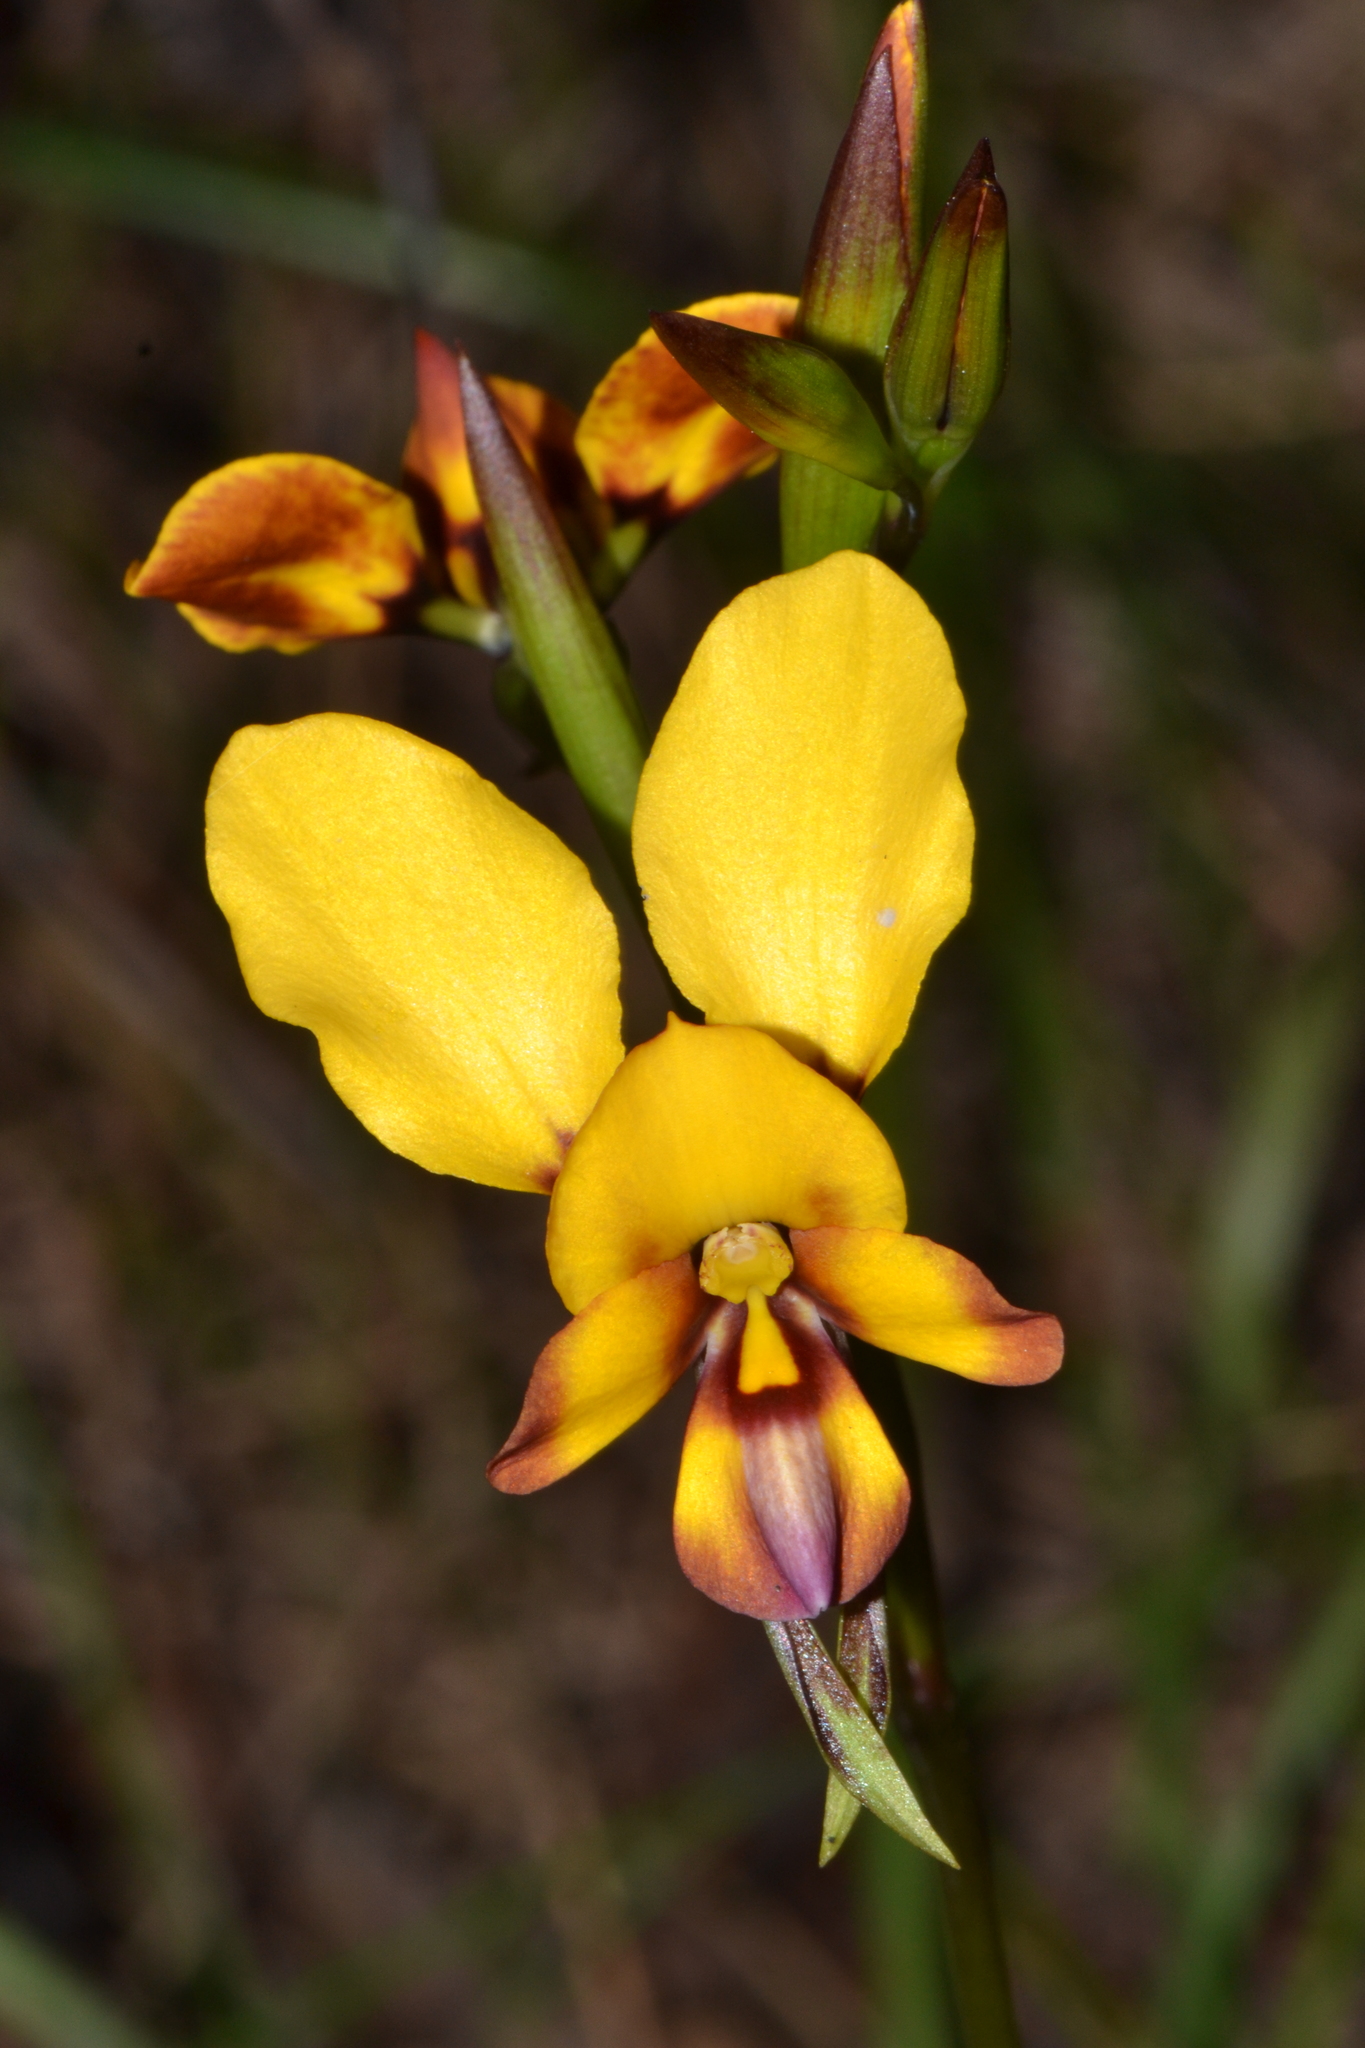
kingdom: Plantae
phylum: Tracheophyta
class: Liliopsida
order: Asparagales
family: Orchidaceae
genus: Diuris
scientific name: Diuris magnifica
